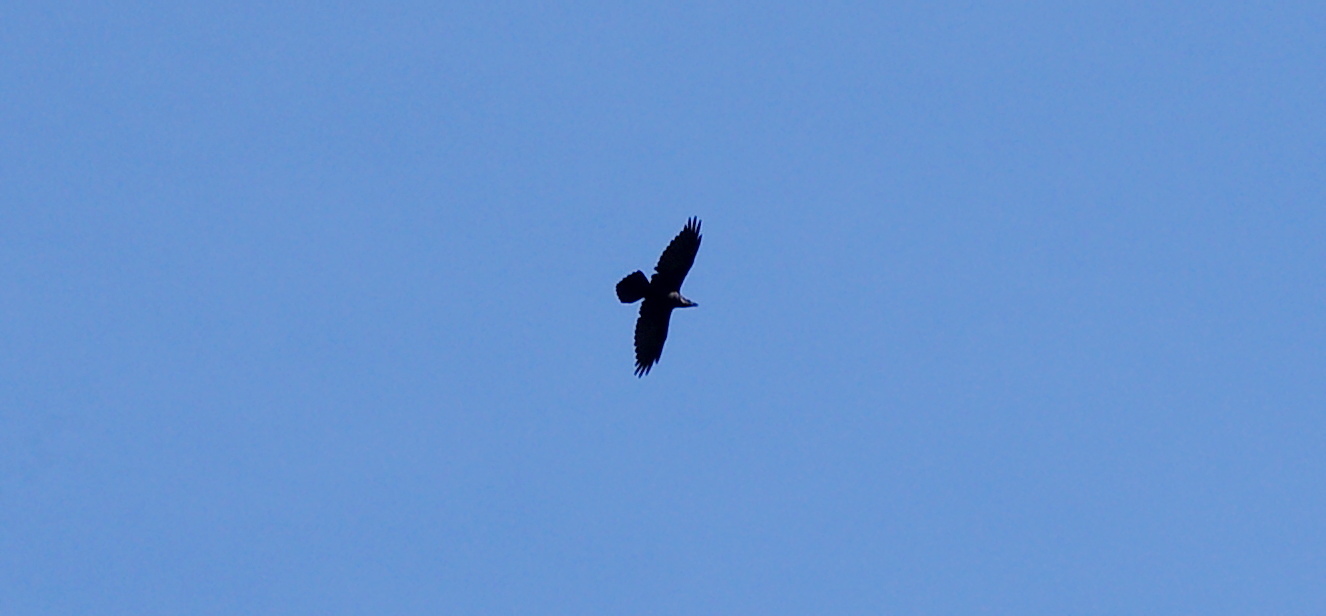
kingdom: Animalia
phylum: Chordata
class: Aves
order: Passeriformes
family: Corvidae
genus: Corvus
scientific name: Corvus corax
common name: Common raven
